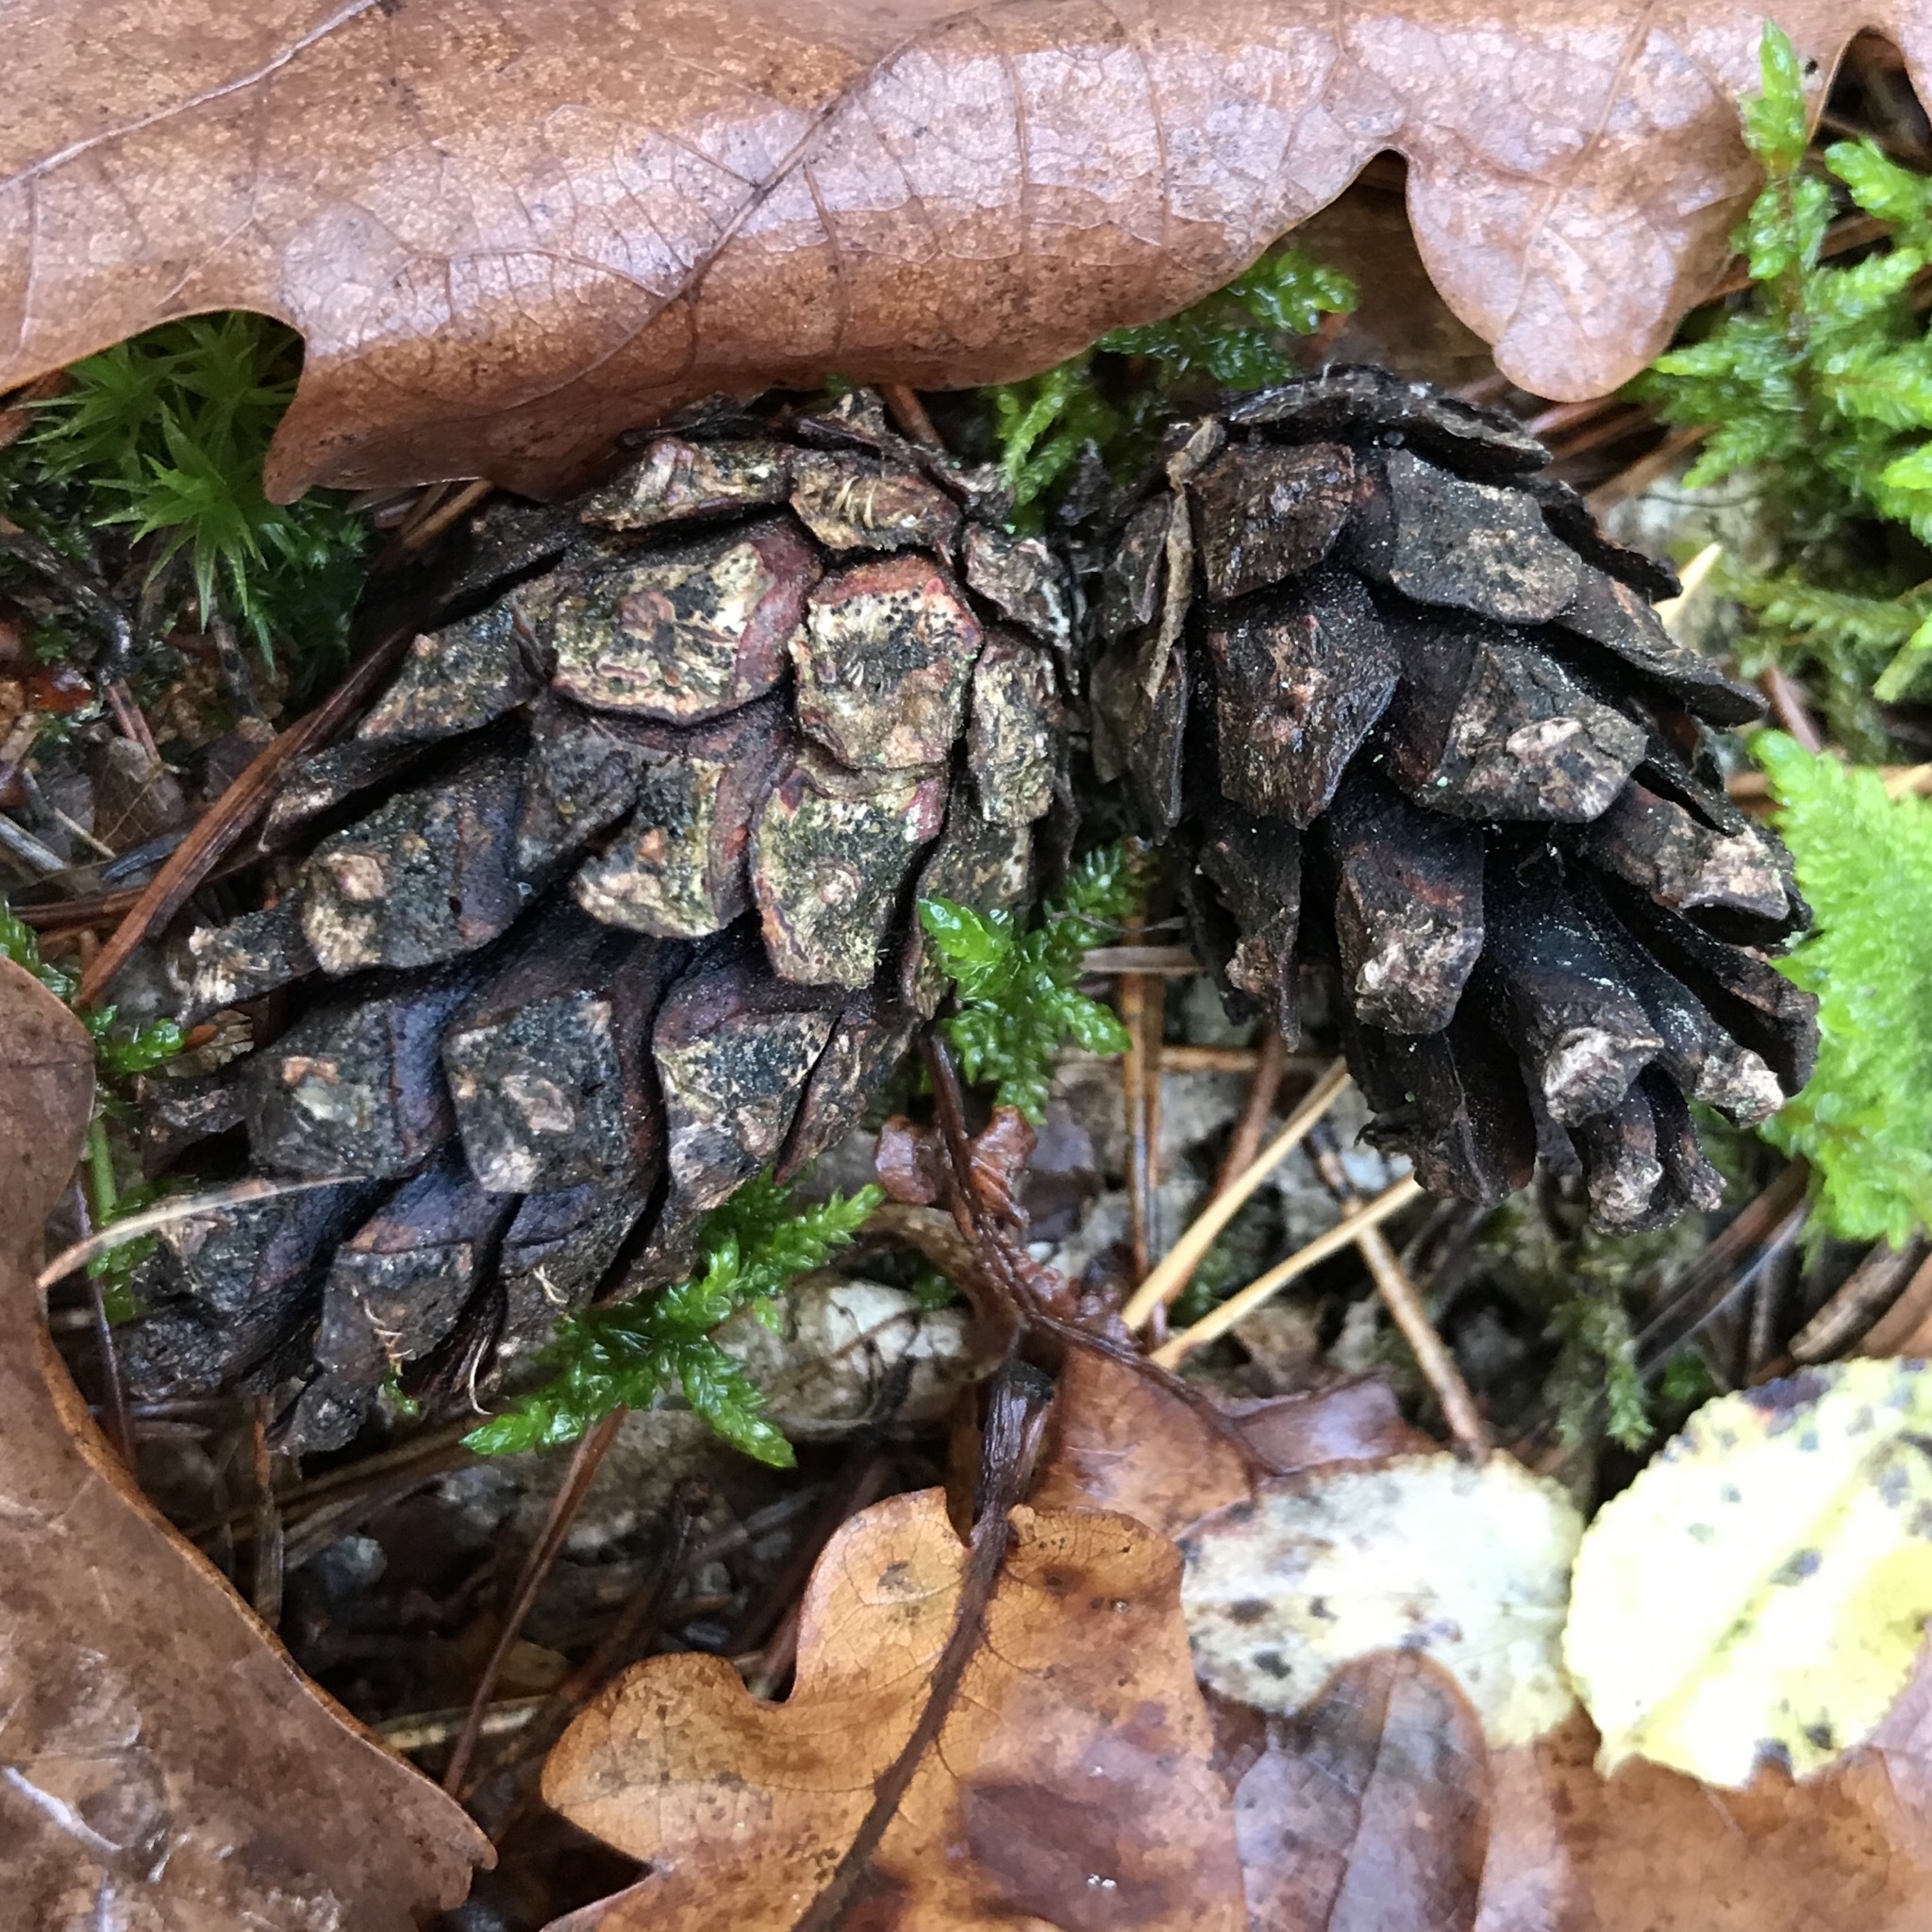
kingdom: Plantae
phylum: Tracheophyta
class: Pinopsida
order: Pinales
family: Pinaceae
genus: Picea
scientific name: Picea abies
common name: Norway spruce
